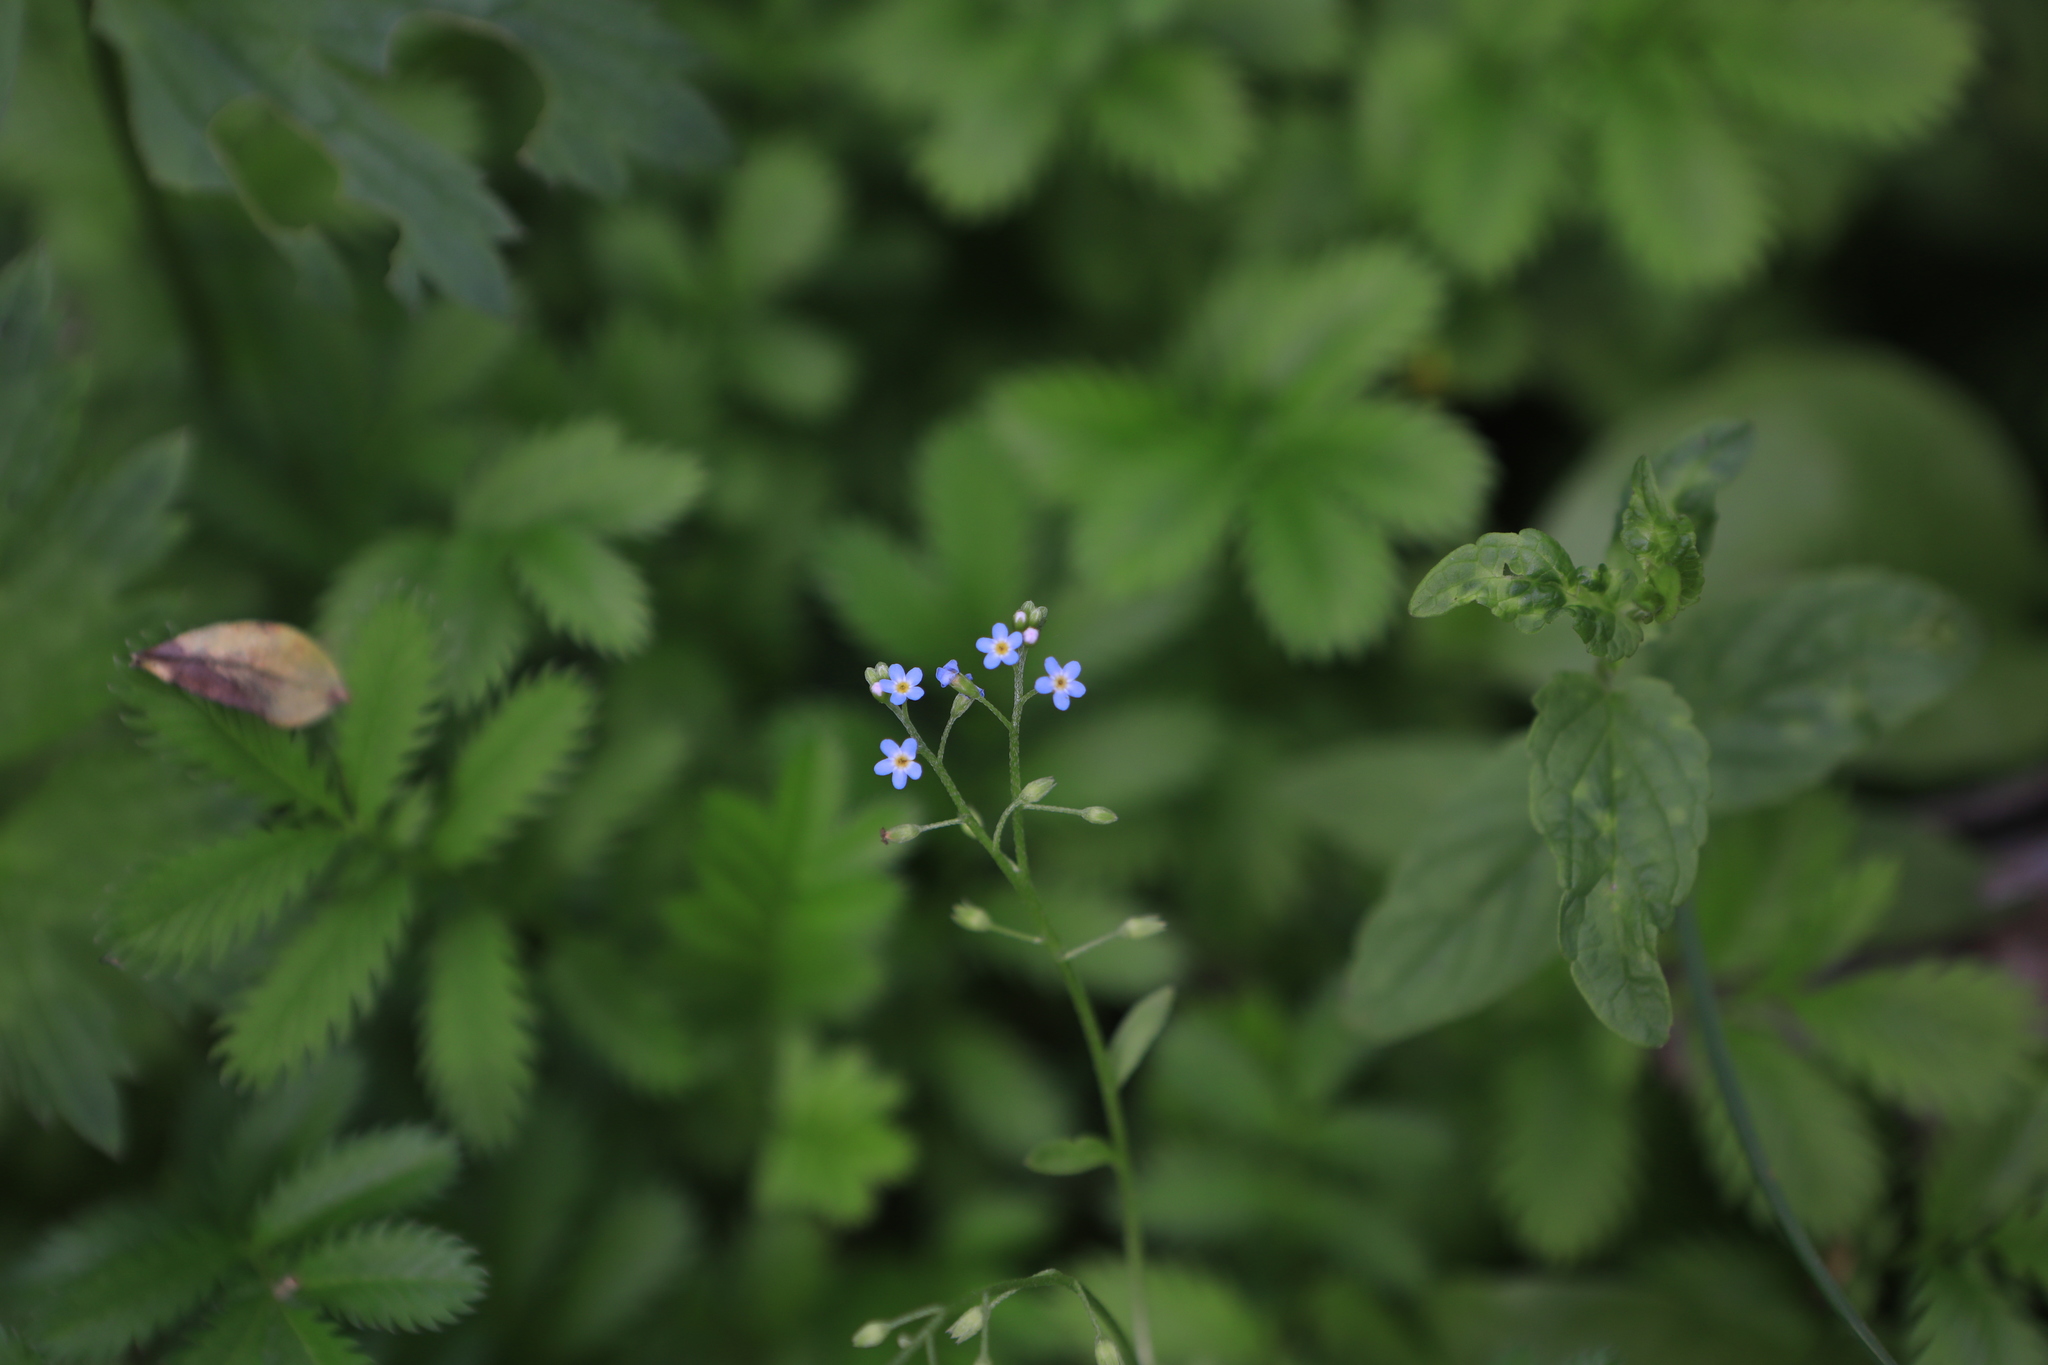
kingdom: Plantae
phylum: Tracheophyta
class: Magnoliopsida
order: Boraginales
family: Boraginaceae
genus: Myosotis
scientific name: Myosotis laxa
